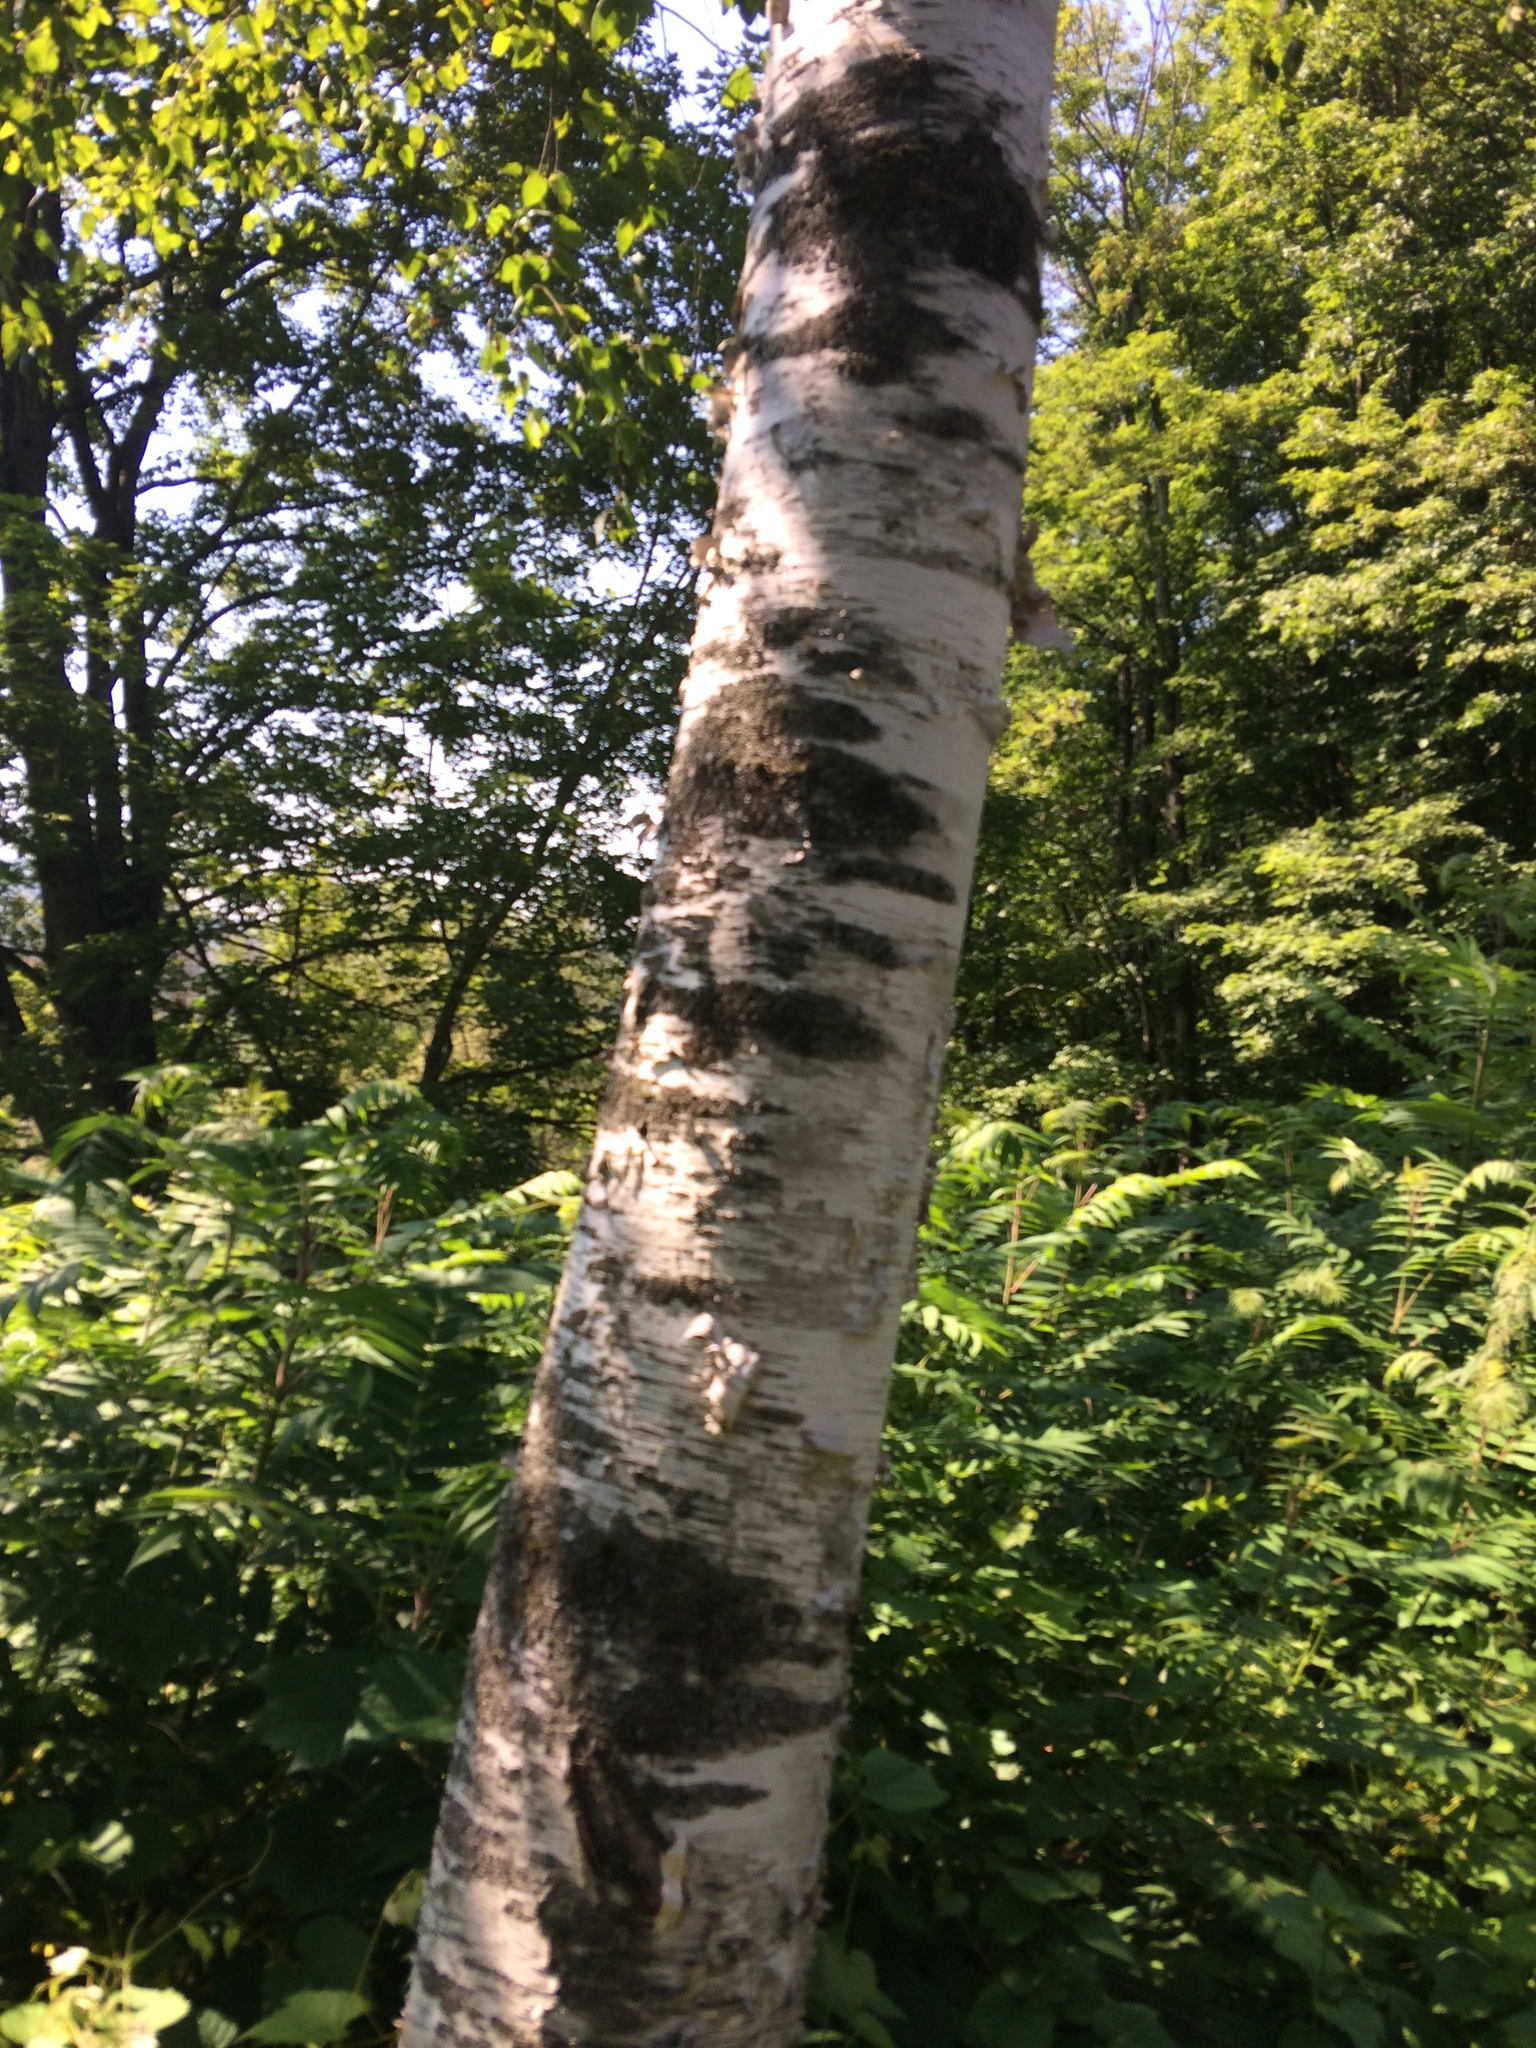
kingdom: Plantae
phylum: Tracheophyta
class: Magnoliopsida
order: Fagales
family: Betulaceae
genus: Betula
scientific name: Betula papyrifera
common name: Paper birch
